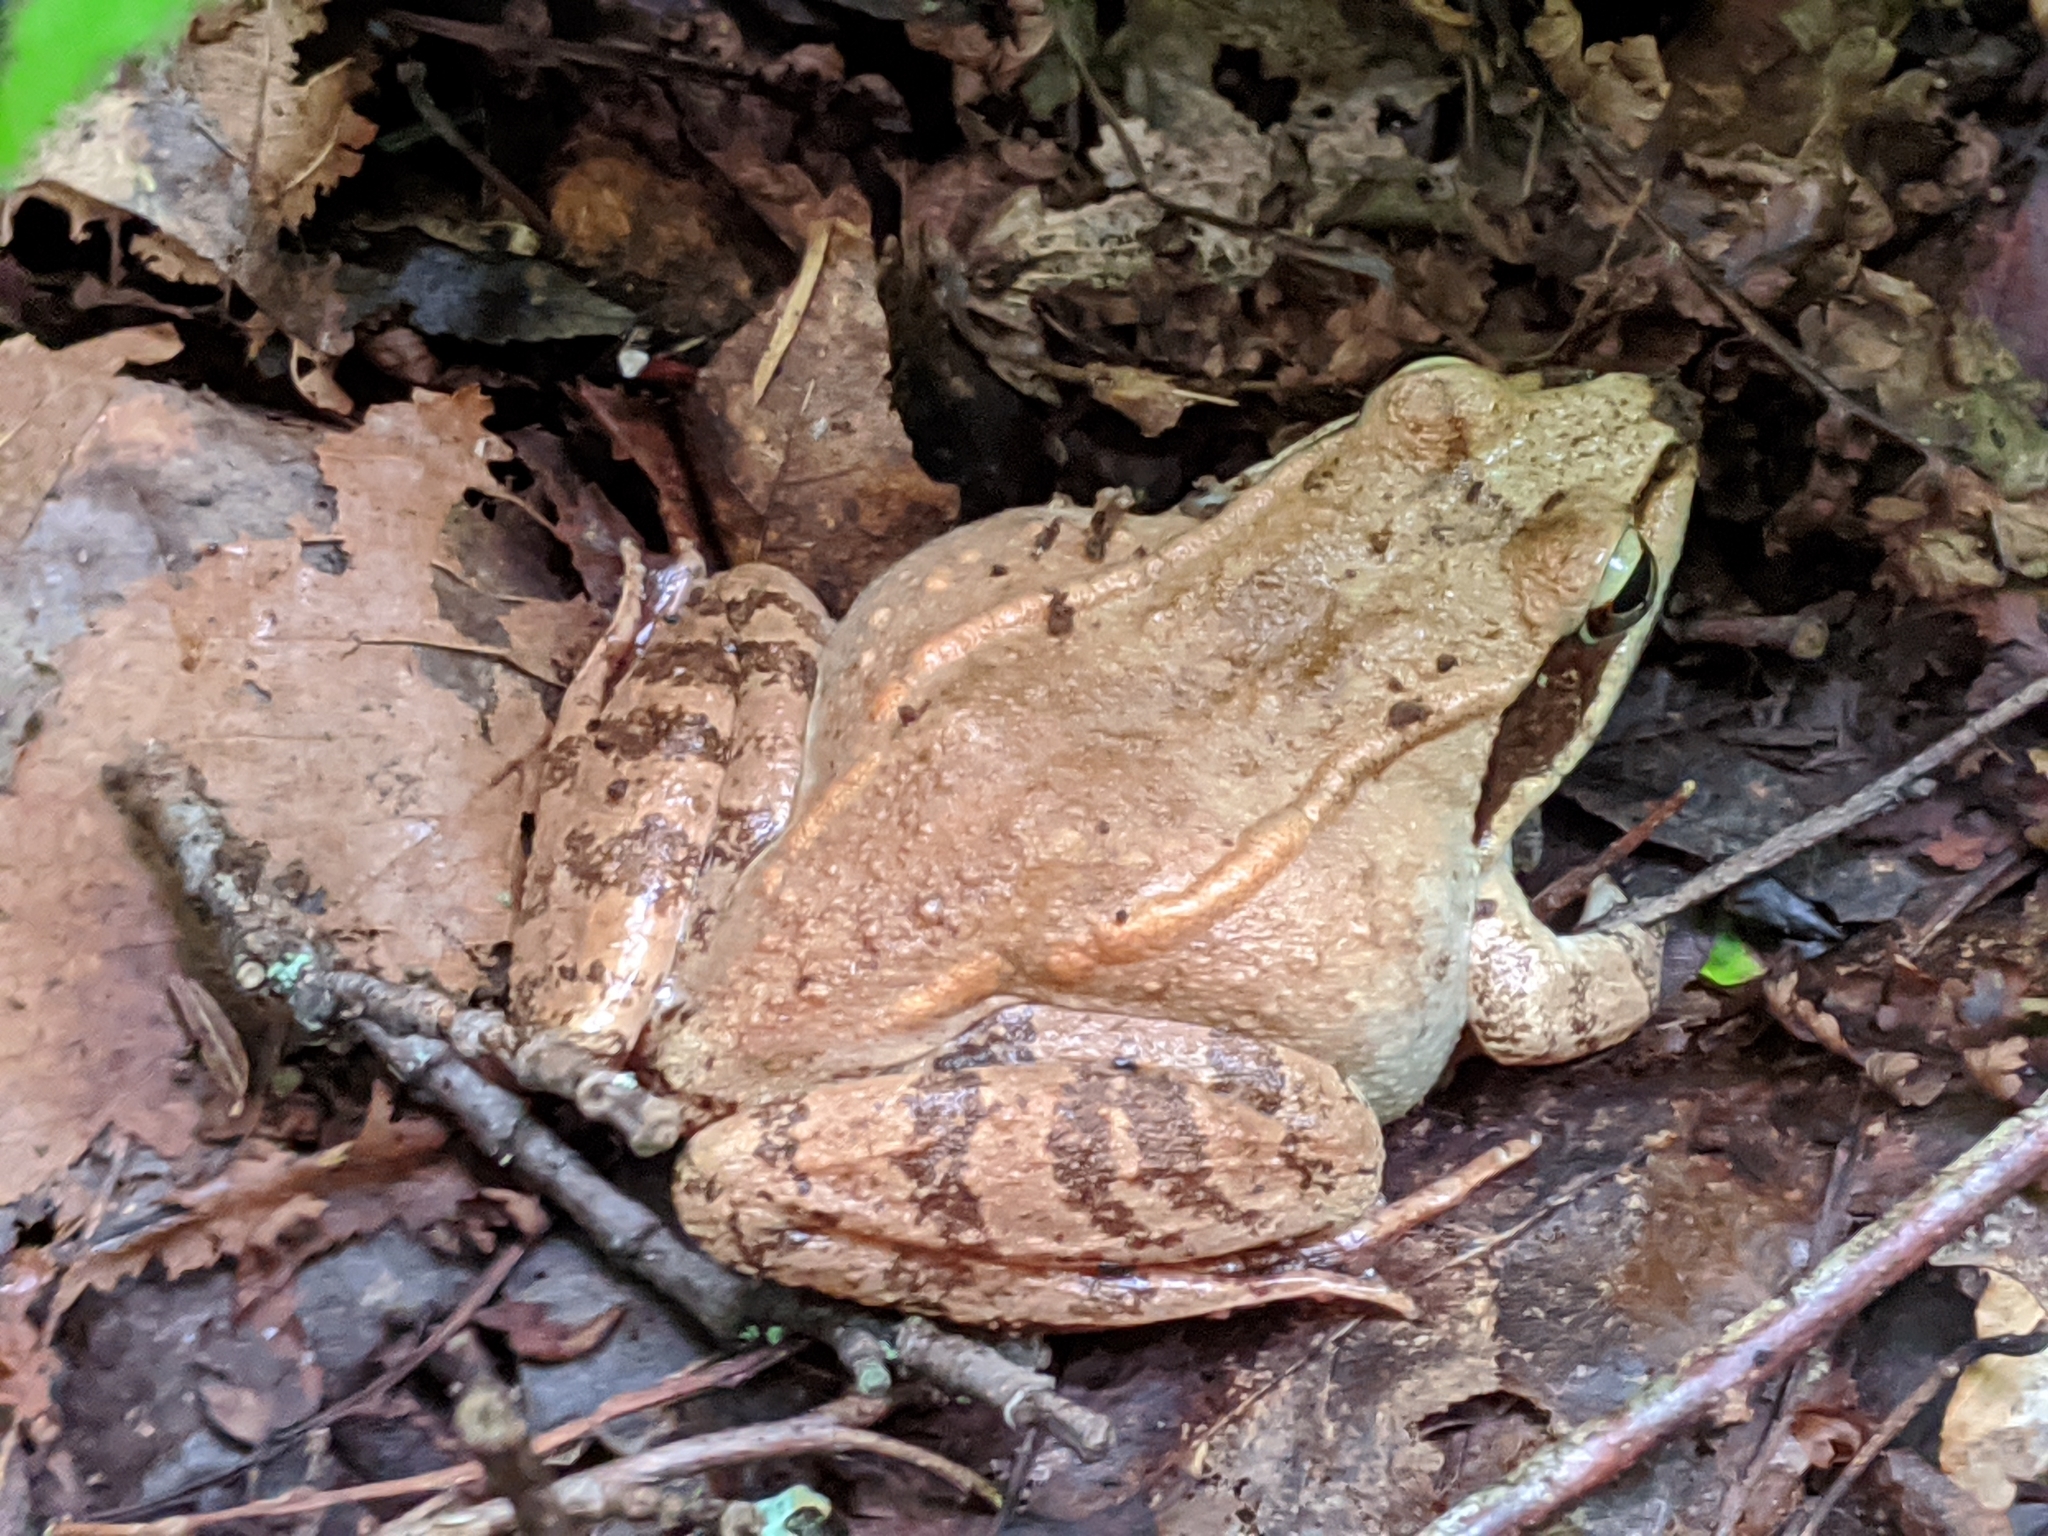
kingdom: Animalia
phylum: Chordata
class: Amphibia
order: Anura
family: Ranidae
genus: Lithobates
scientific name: Lithobates sylvaticus
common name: Wood frog
